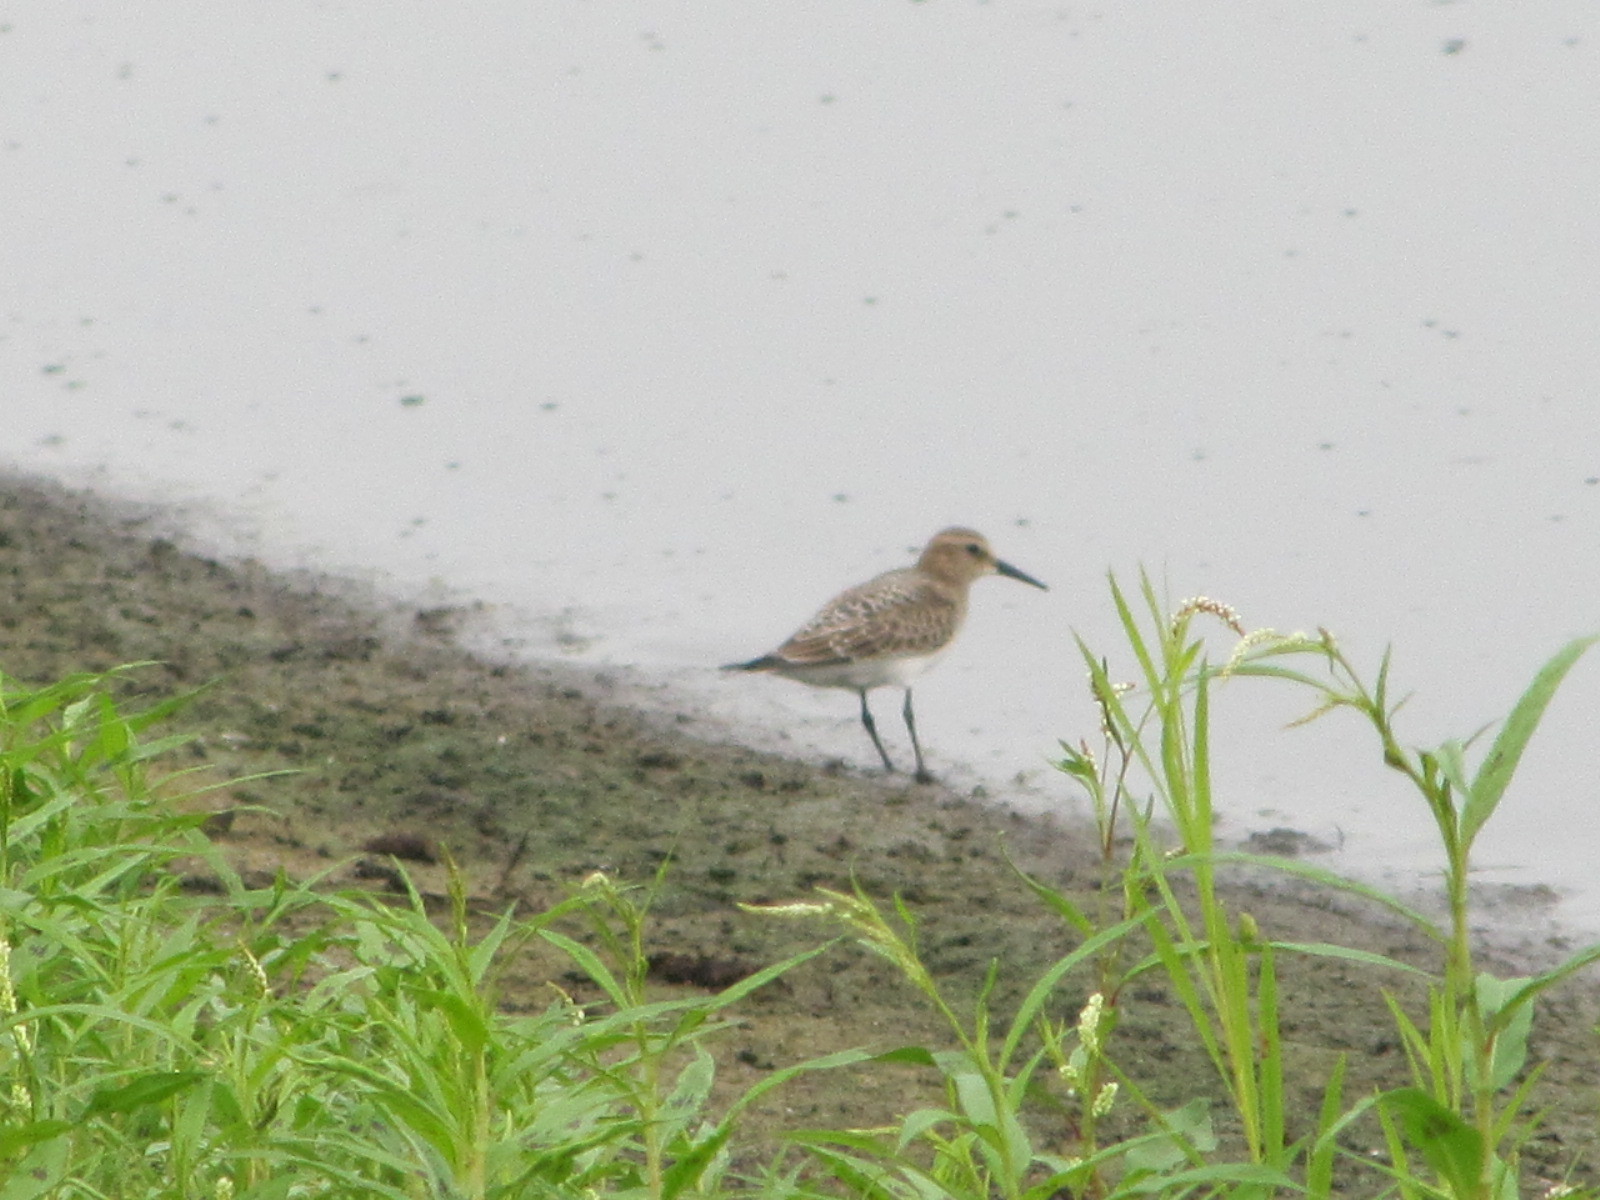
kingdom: Animalia
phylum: Chordata
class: Aves
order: Charadriiformes
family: Scolopacidae
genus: Calidris
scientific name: Calidris bairdii
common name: Baird's sandpiper
